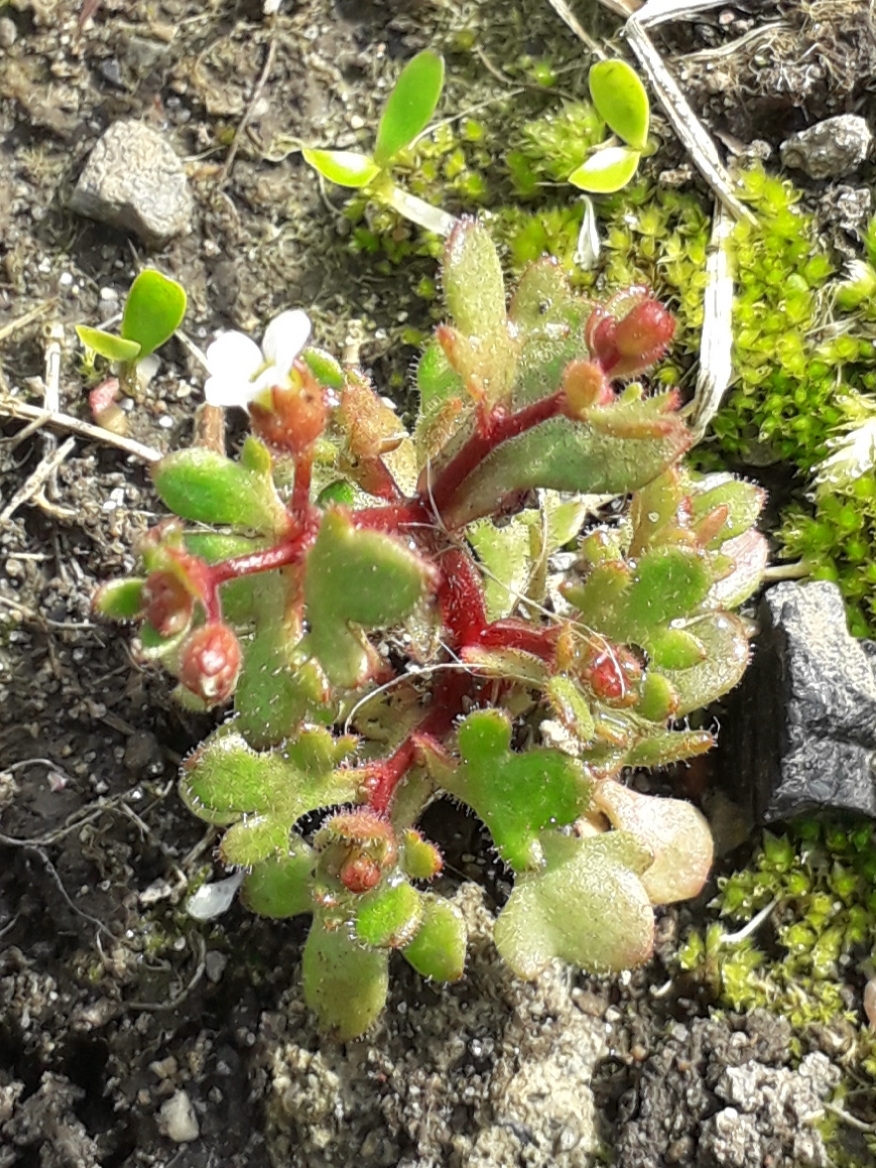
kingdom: Plantae
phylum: Tracheophyta
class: Magnoliopsida
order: Saxifragales
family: Saxifragaceae
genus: Saxifraga
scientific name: Saxifraga tridactylites
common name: Rue-leaved saxifrage
